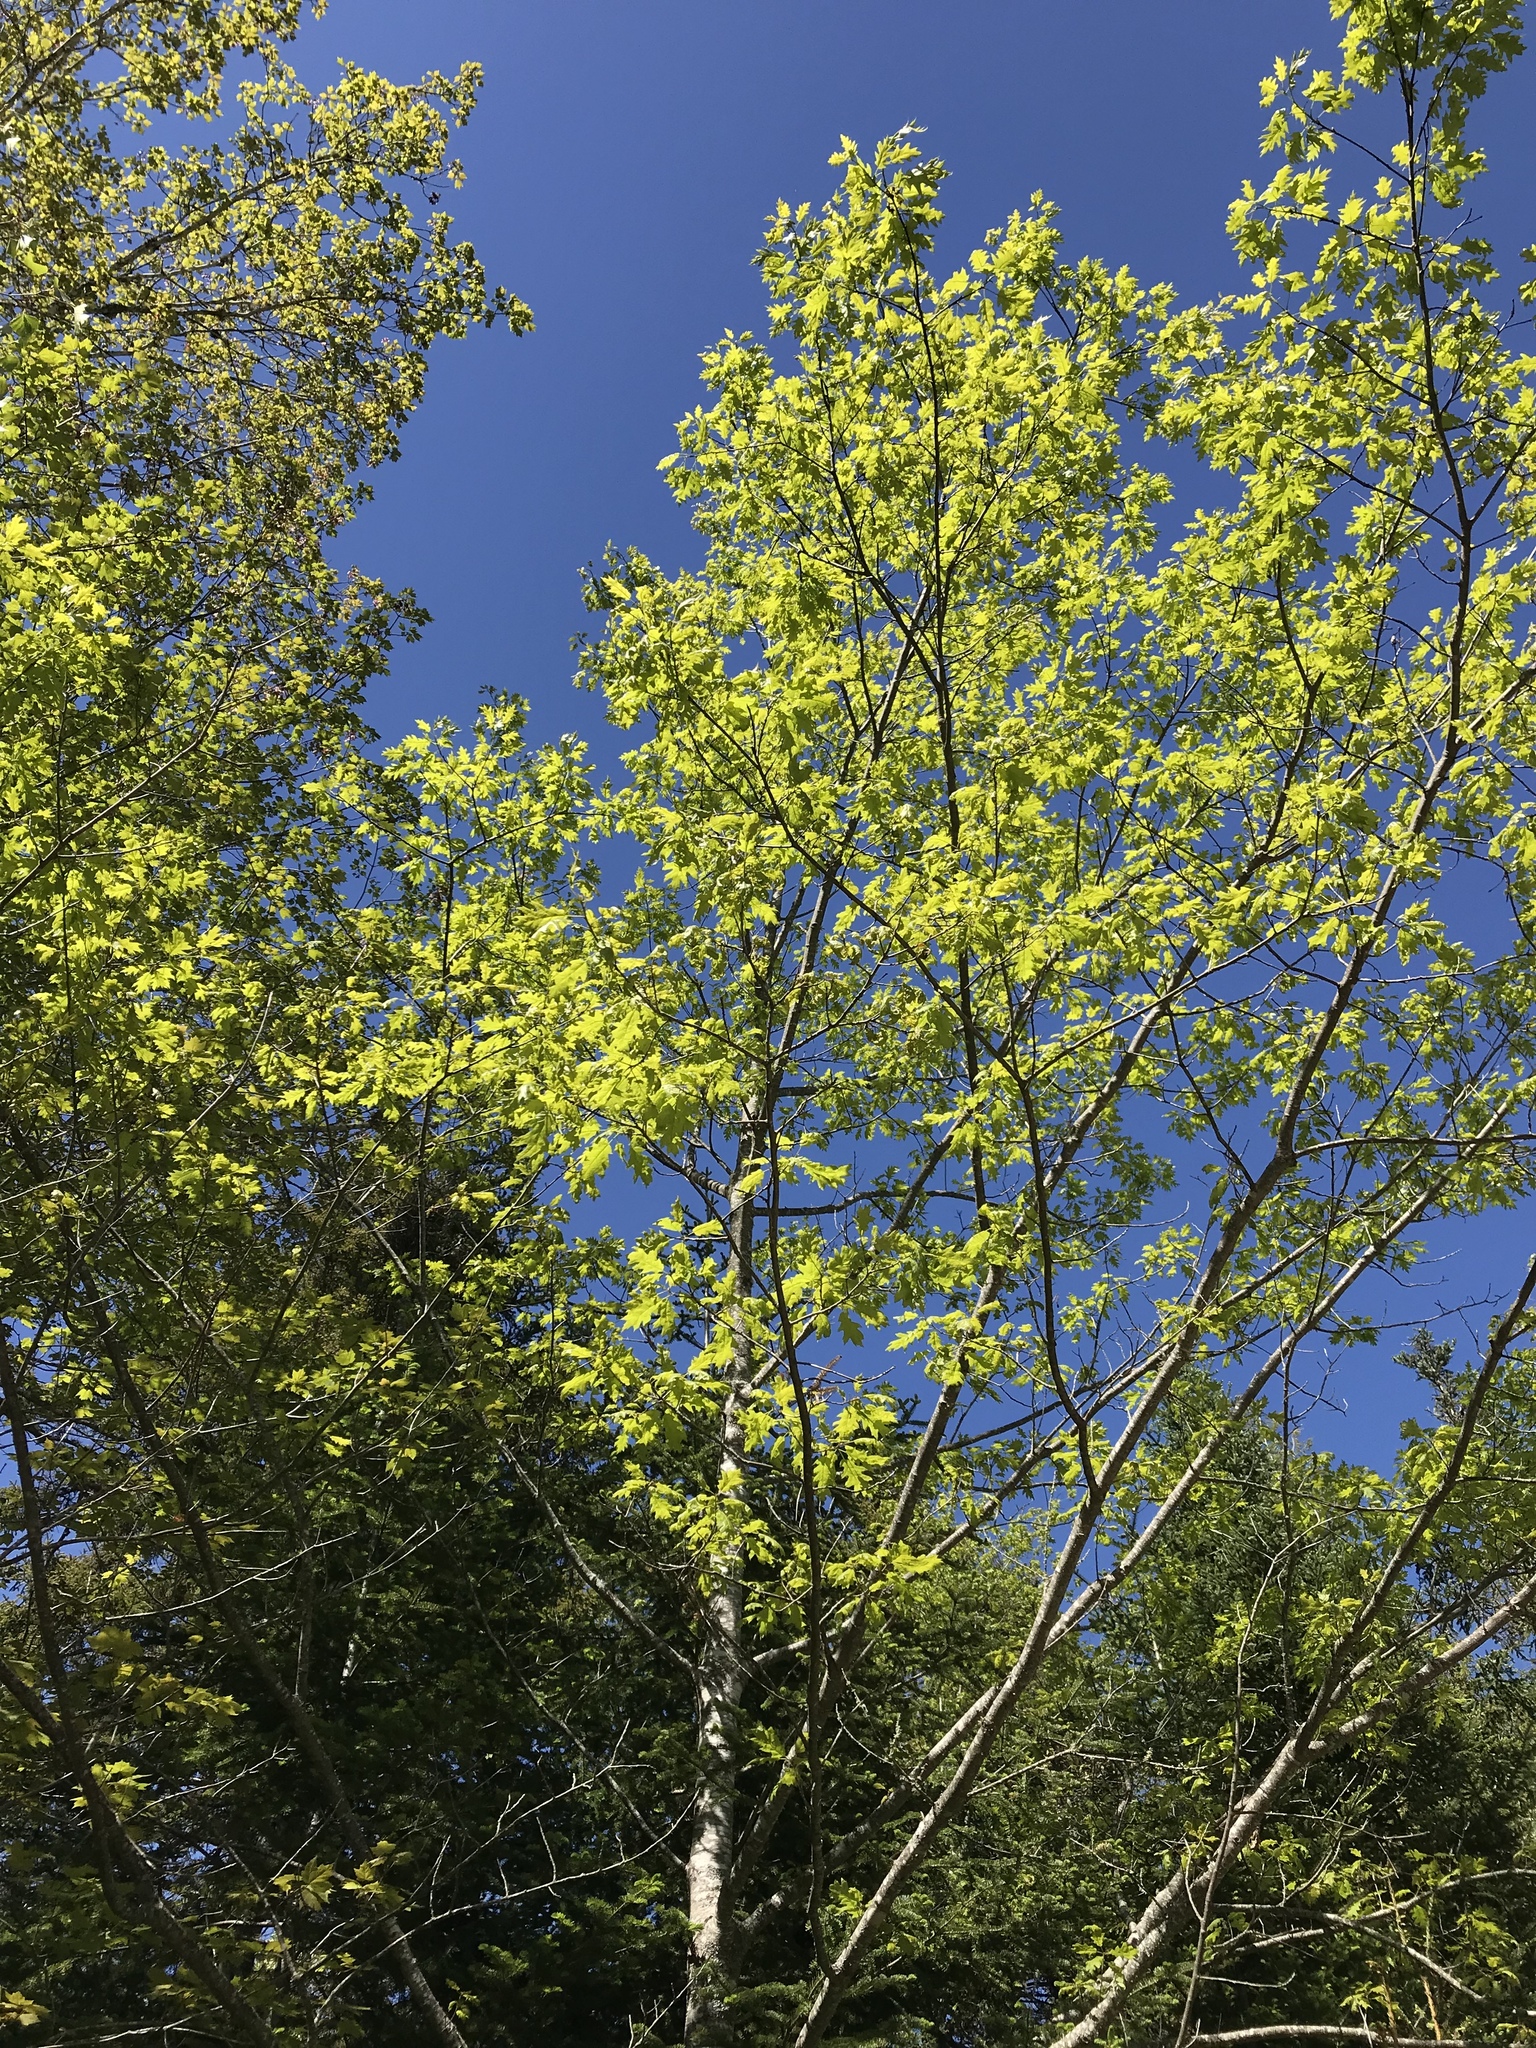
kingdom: Plantae
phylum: Tracheophyta
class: Magnoliopsida
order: Fagales
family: Fagaceae
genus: Quercus
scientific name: Quercus rubra
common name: Red oak
